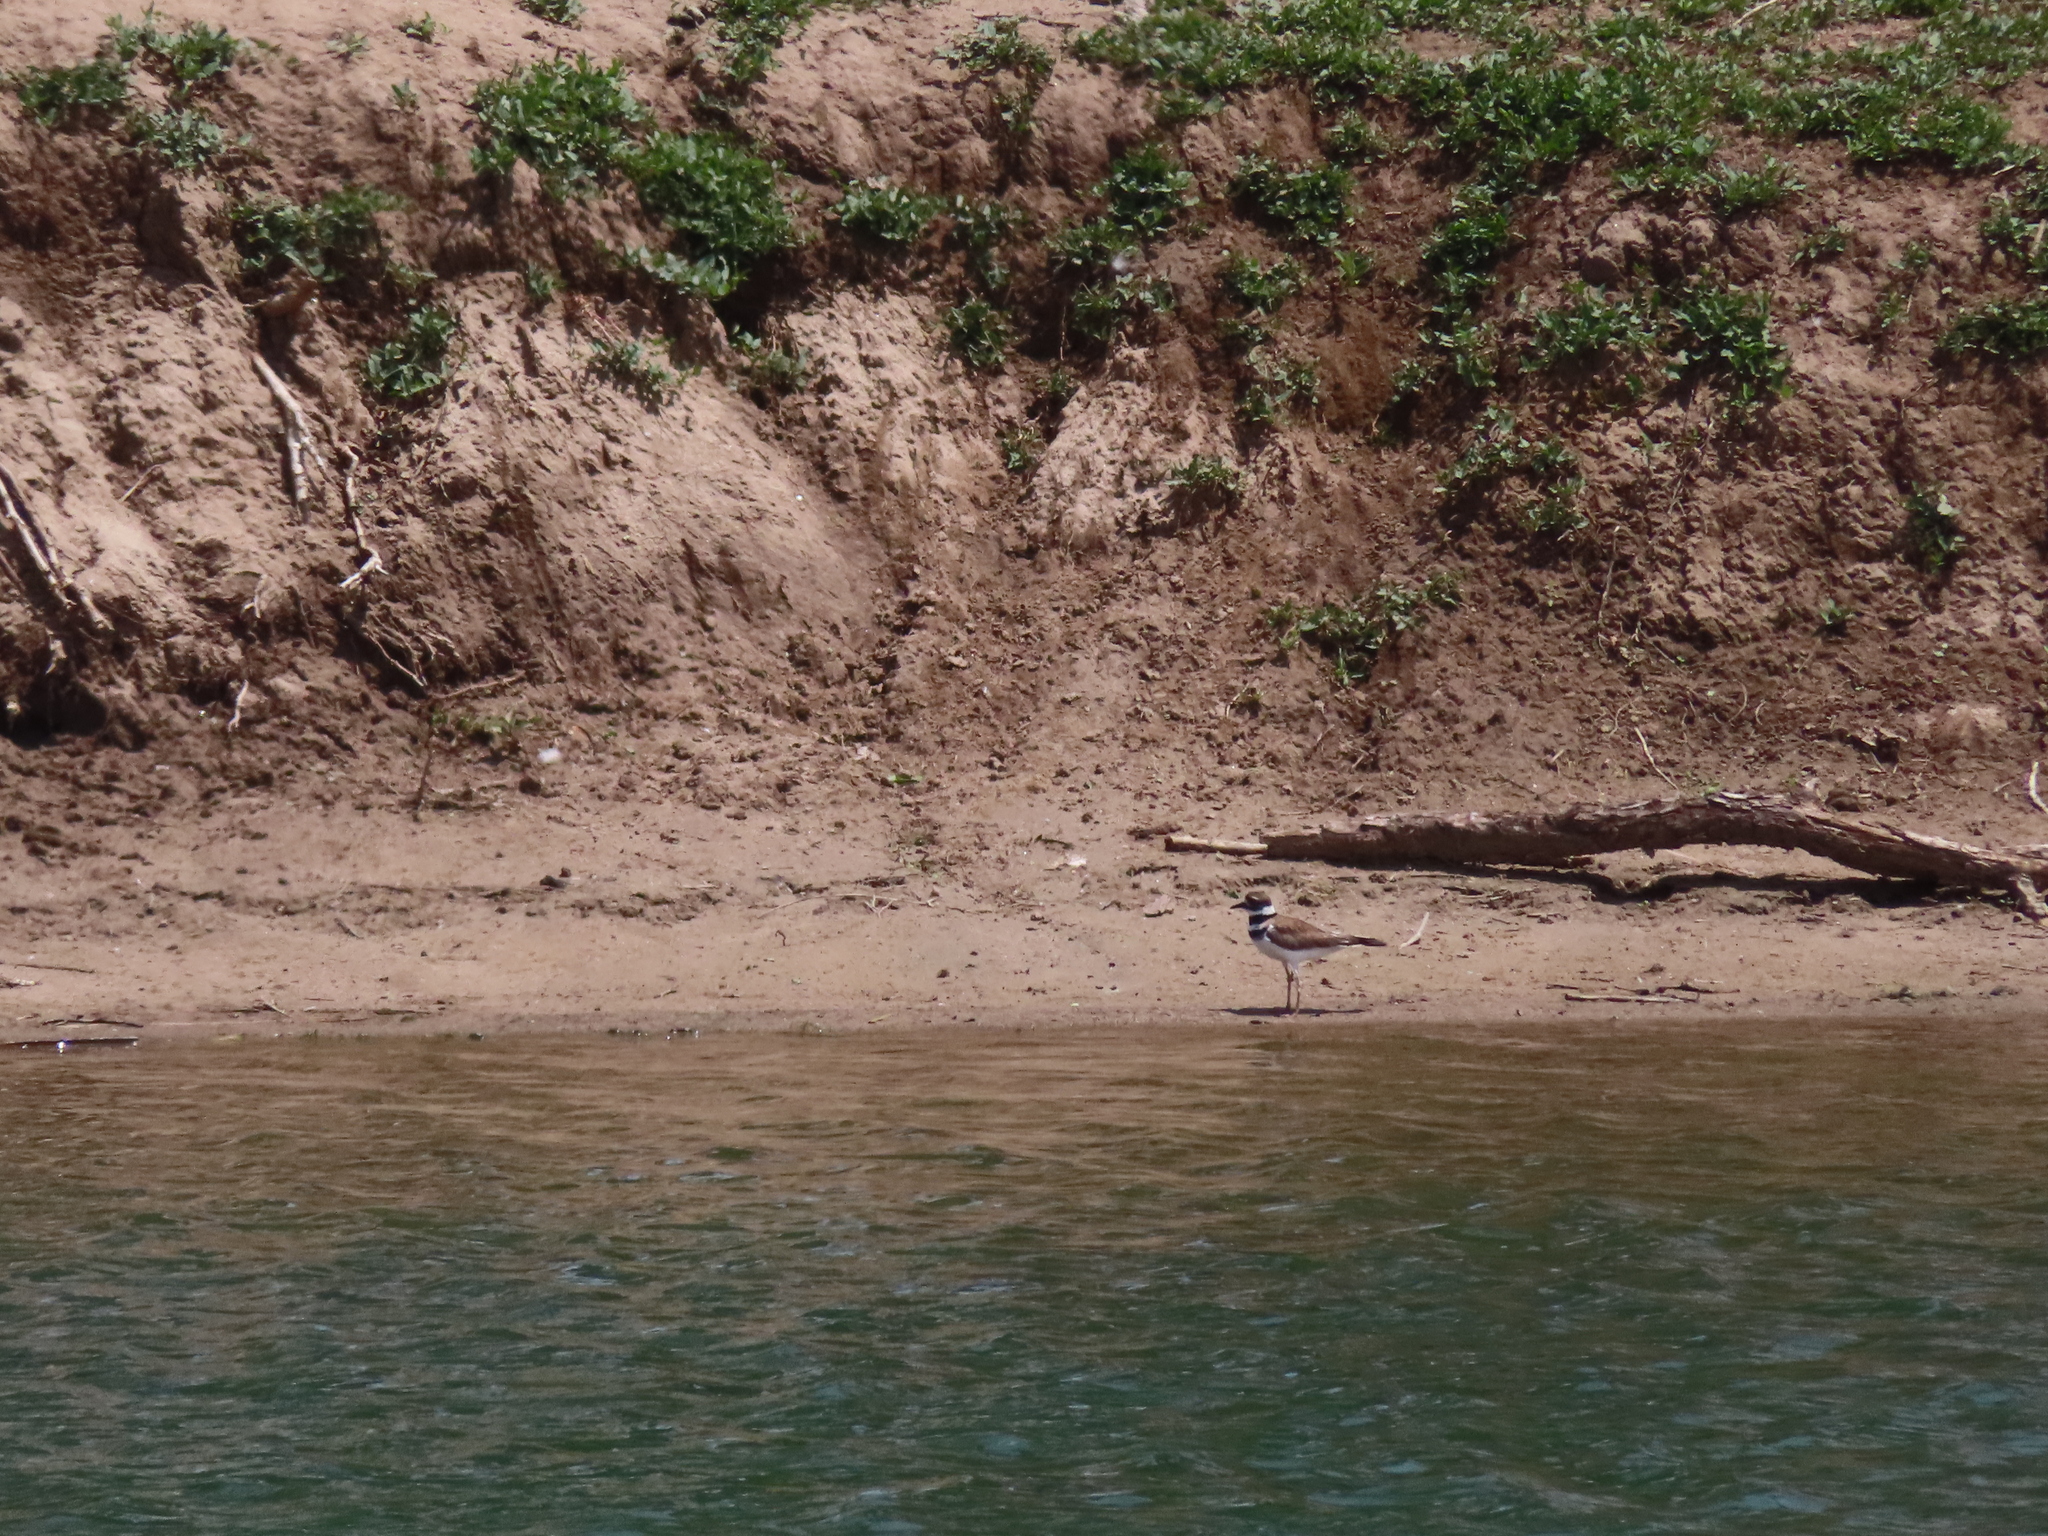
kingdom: Animalia
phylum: Chordata
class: Aves
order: Charadriiformes
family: Charadriidae
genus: Charadrius
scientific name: Charadrius vociferus
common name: Killdeer
